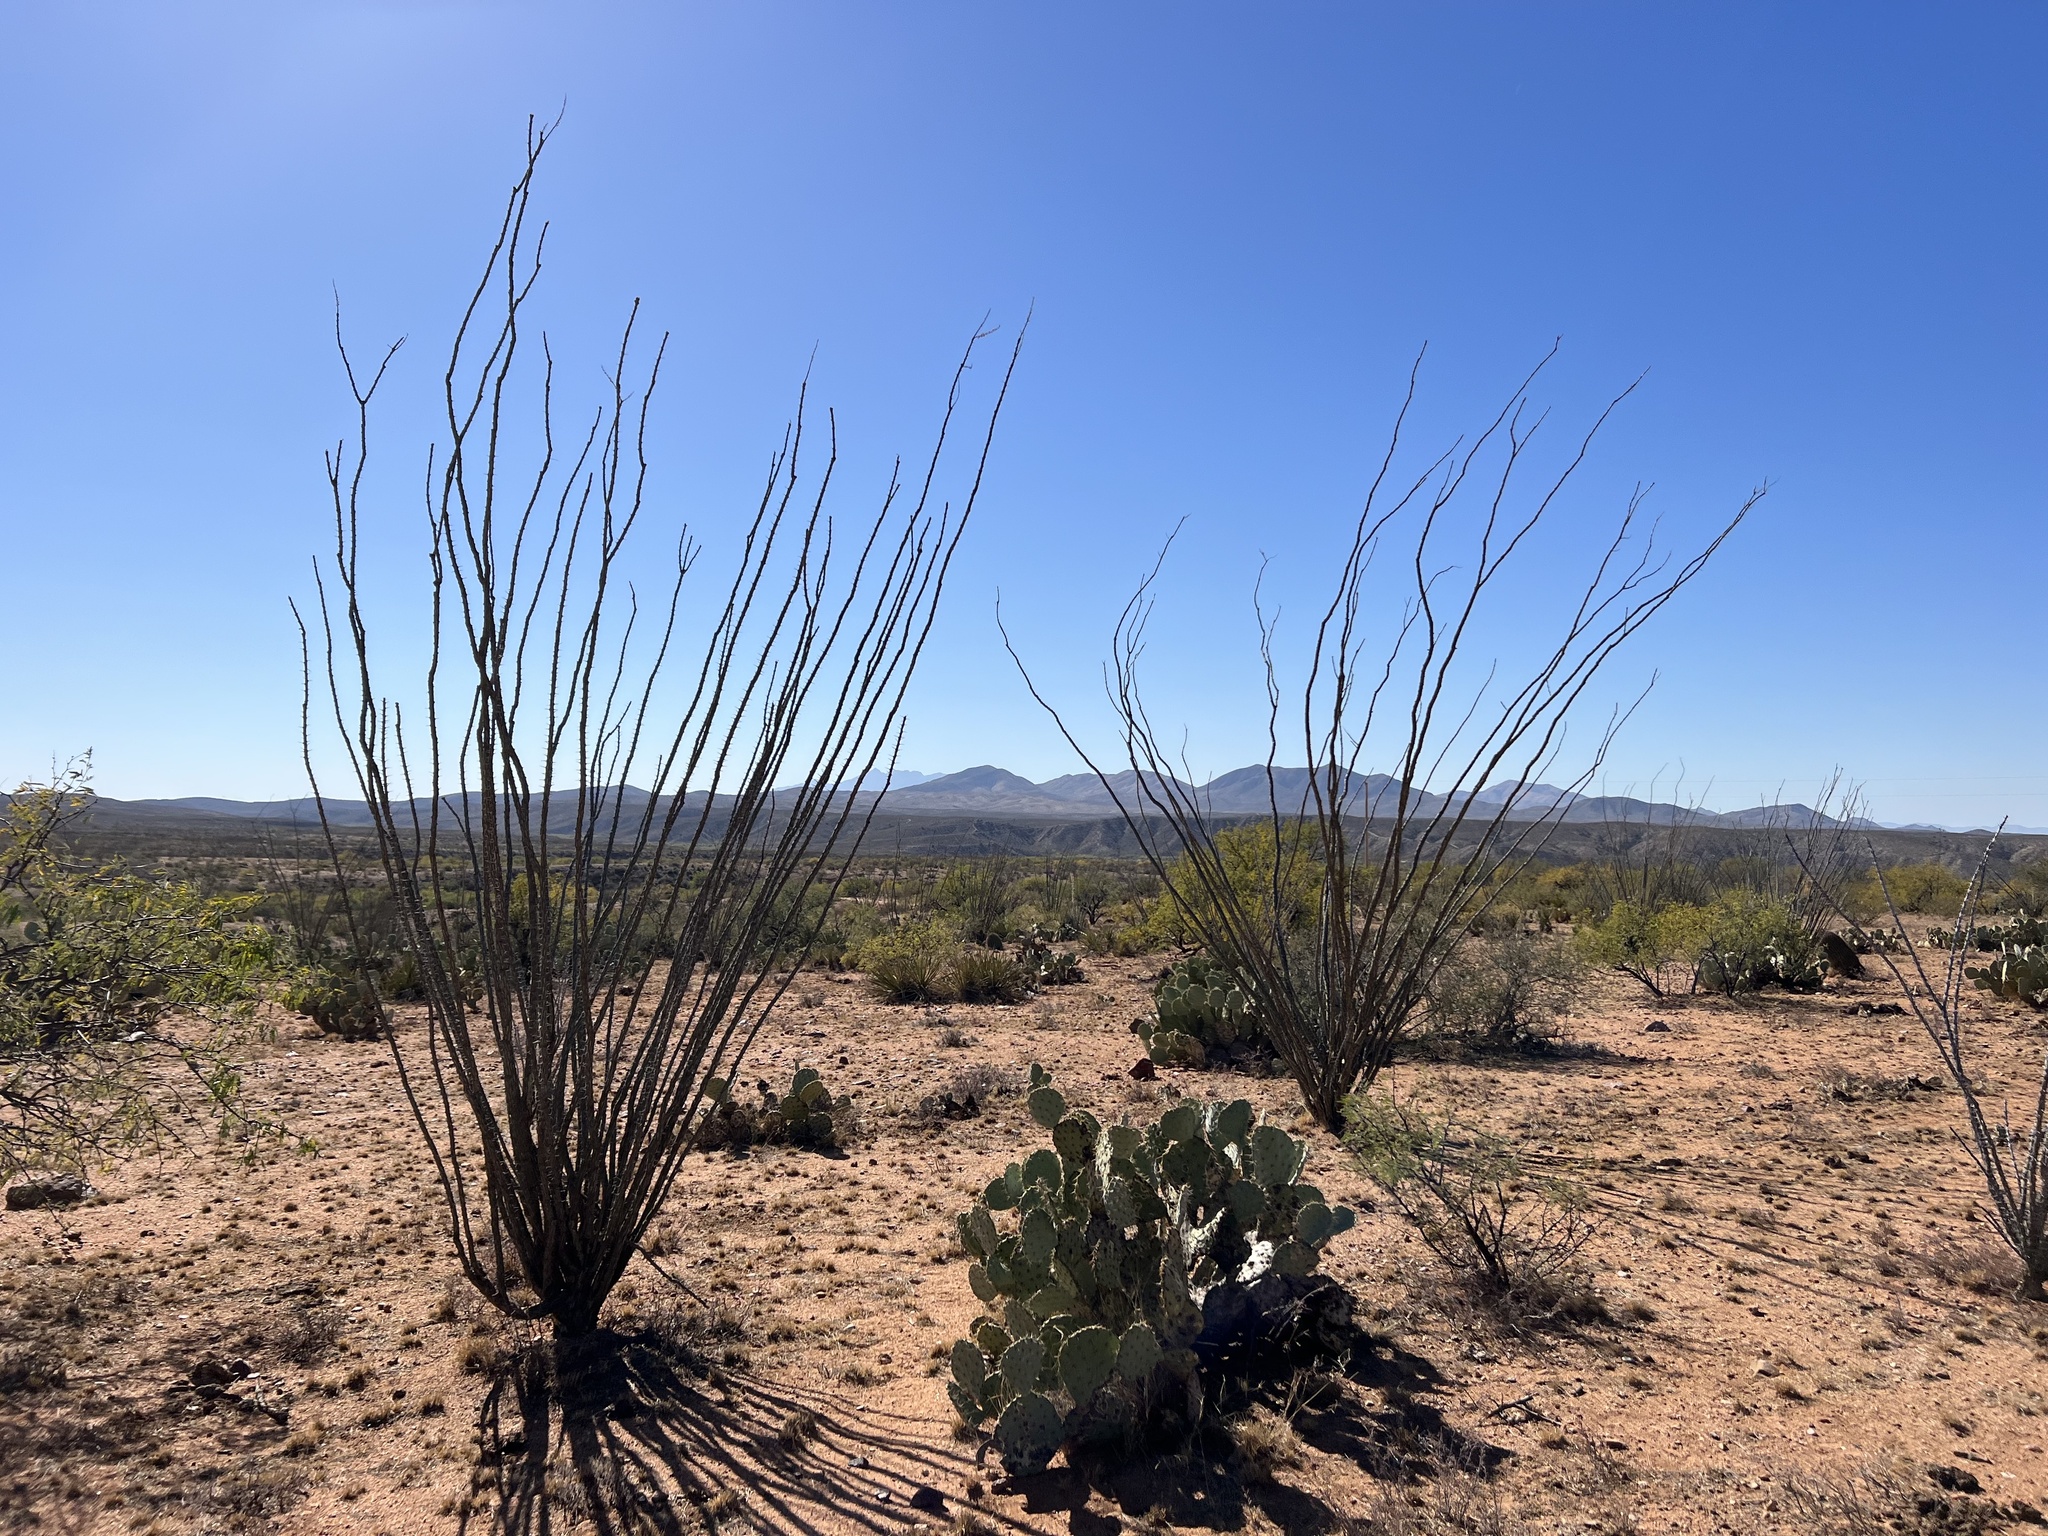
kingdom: Plantae
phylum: Tracheophyta
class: Magnoliopsida
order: Ericales
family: Fouquieriaceae
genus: Fouquieria
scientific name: Fouquieria splendens
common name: Vine-cactus
